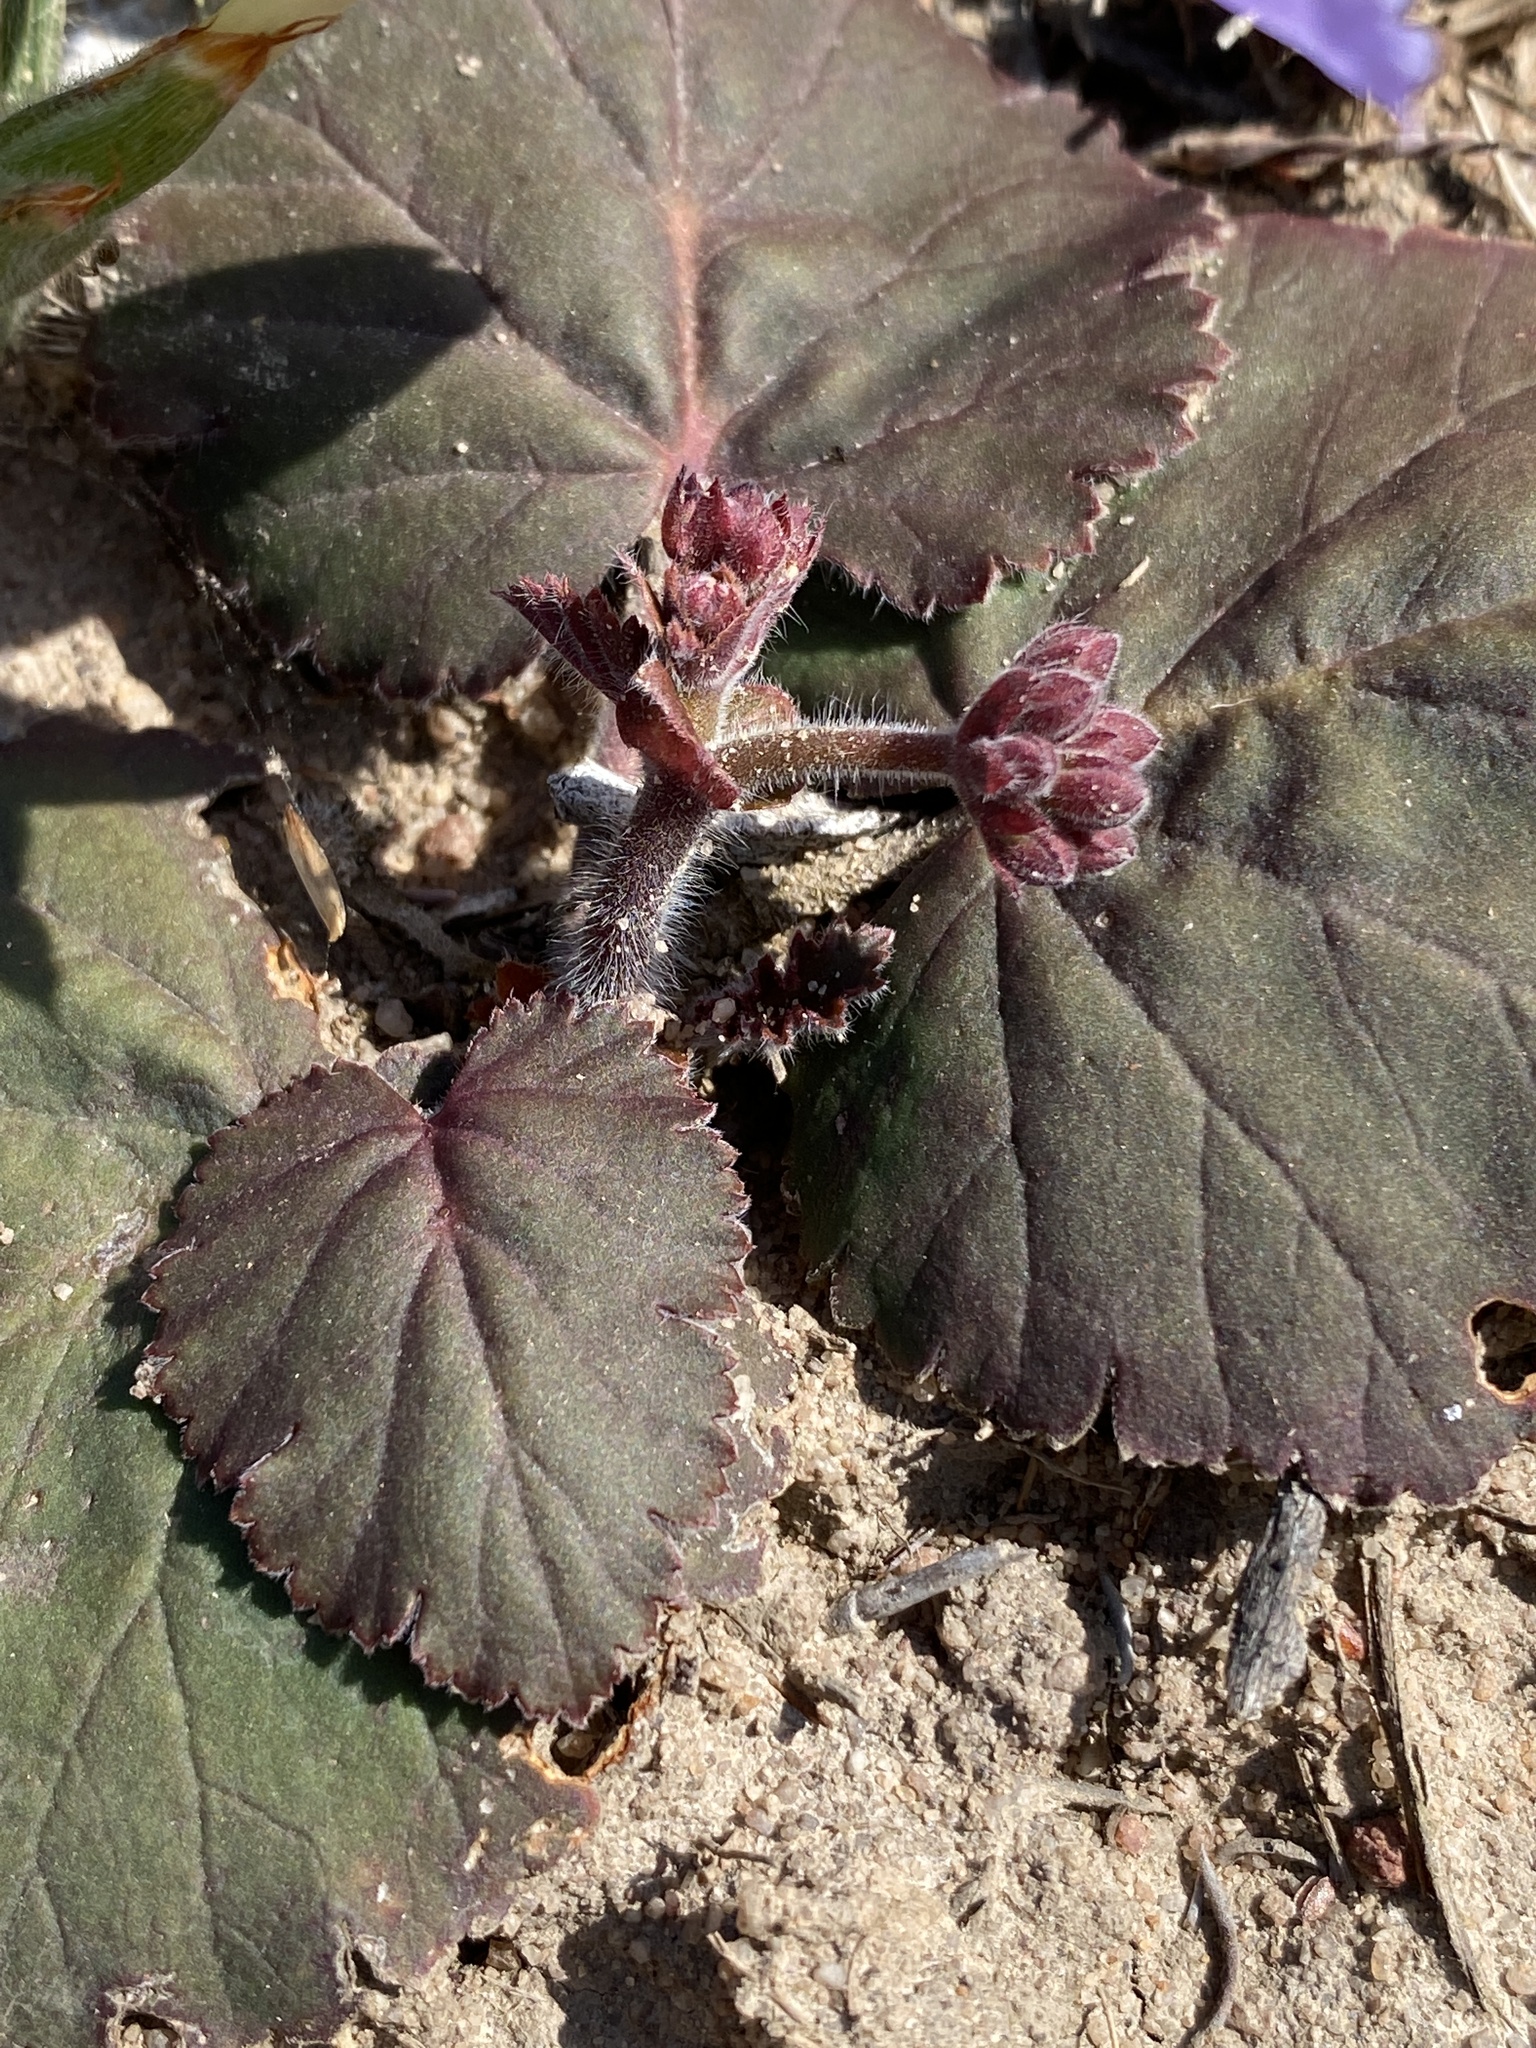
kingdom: Plantae
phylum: Tracheophyta
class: Magnoliopsida
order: Geraniales
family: Geraniaceae
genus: Pelargonium
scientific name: Pelargonium lobatum
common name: Vine-leaf pelargonium
